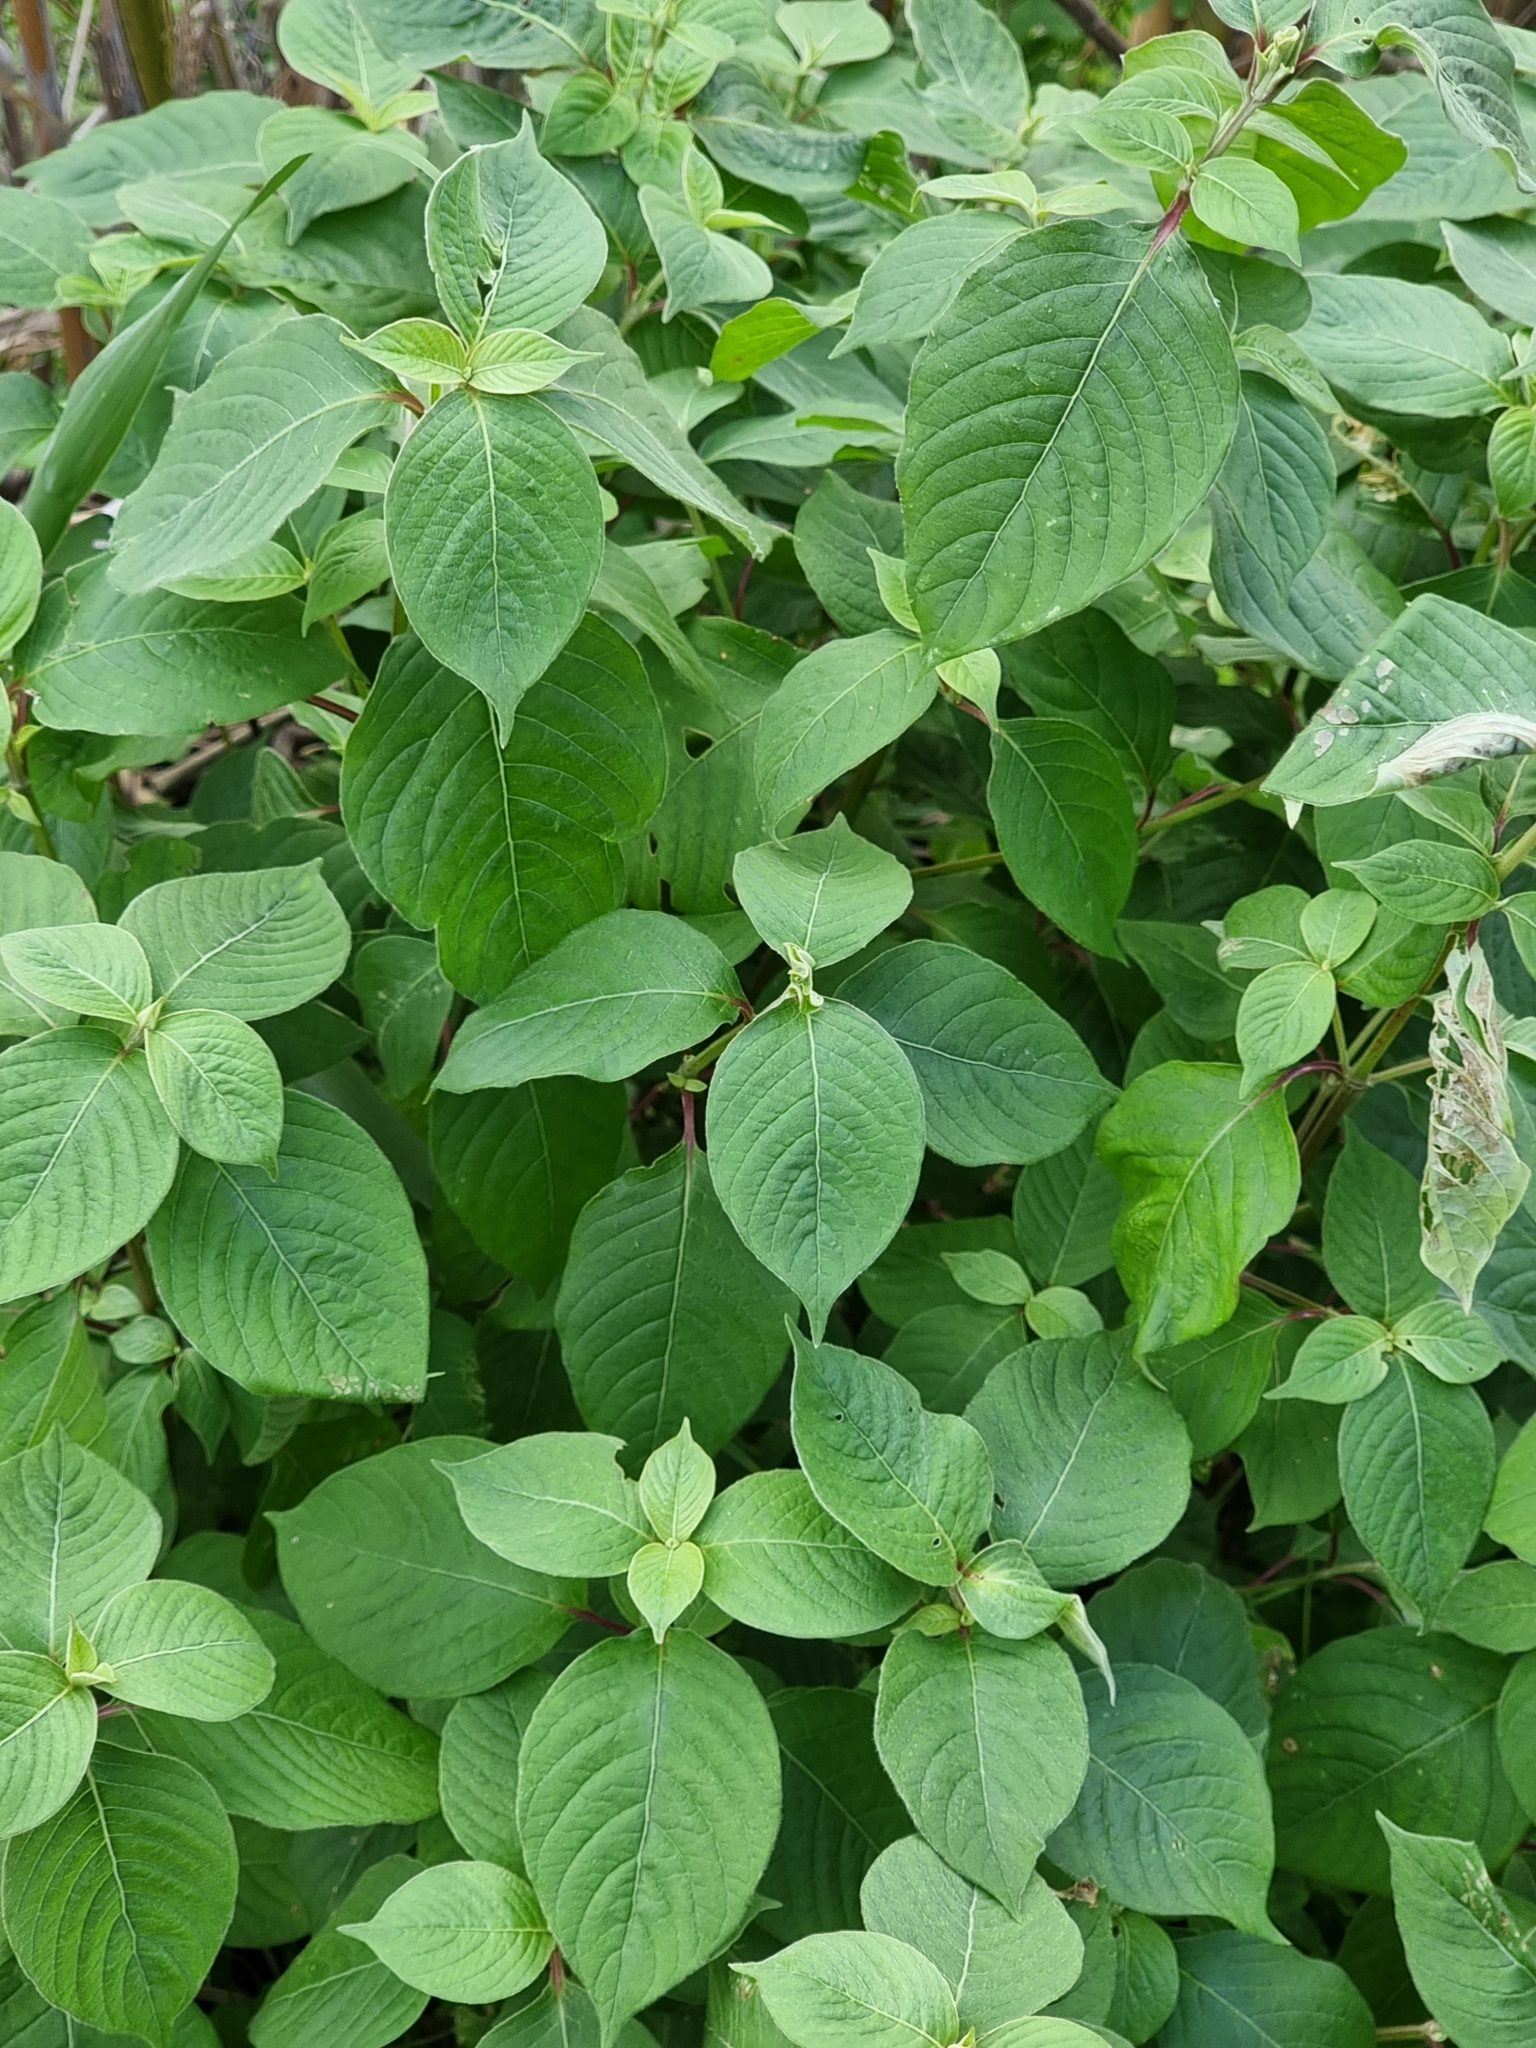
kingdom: Plantae
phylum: Tracheophyta
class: Magnoliopsida
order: Caryophyllales
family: Amaranthaceae
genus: Achyranthes
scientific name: Achyranthes aspera
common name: Devil's horsewhip
